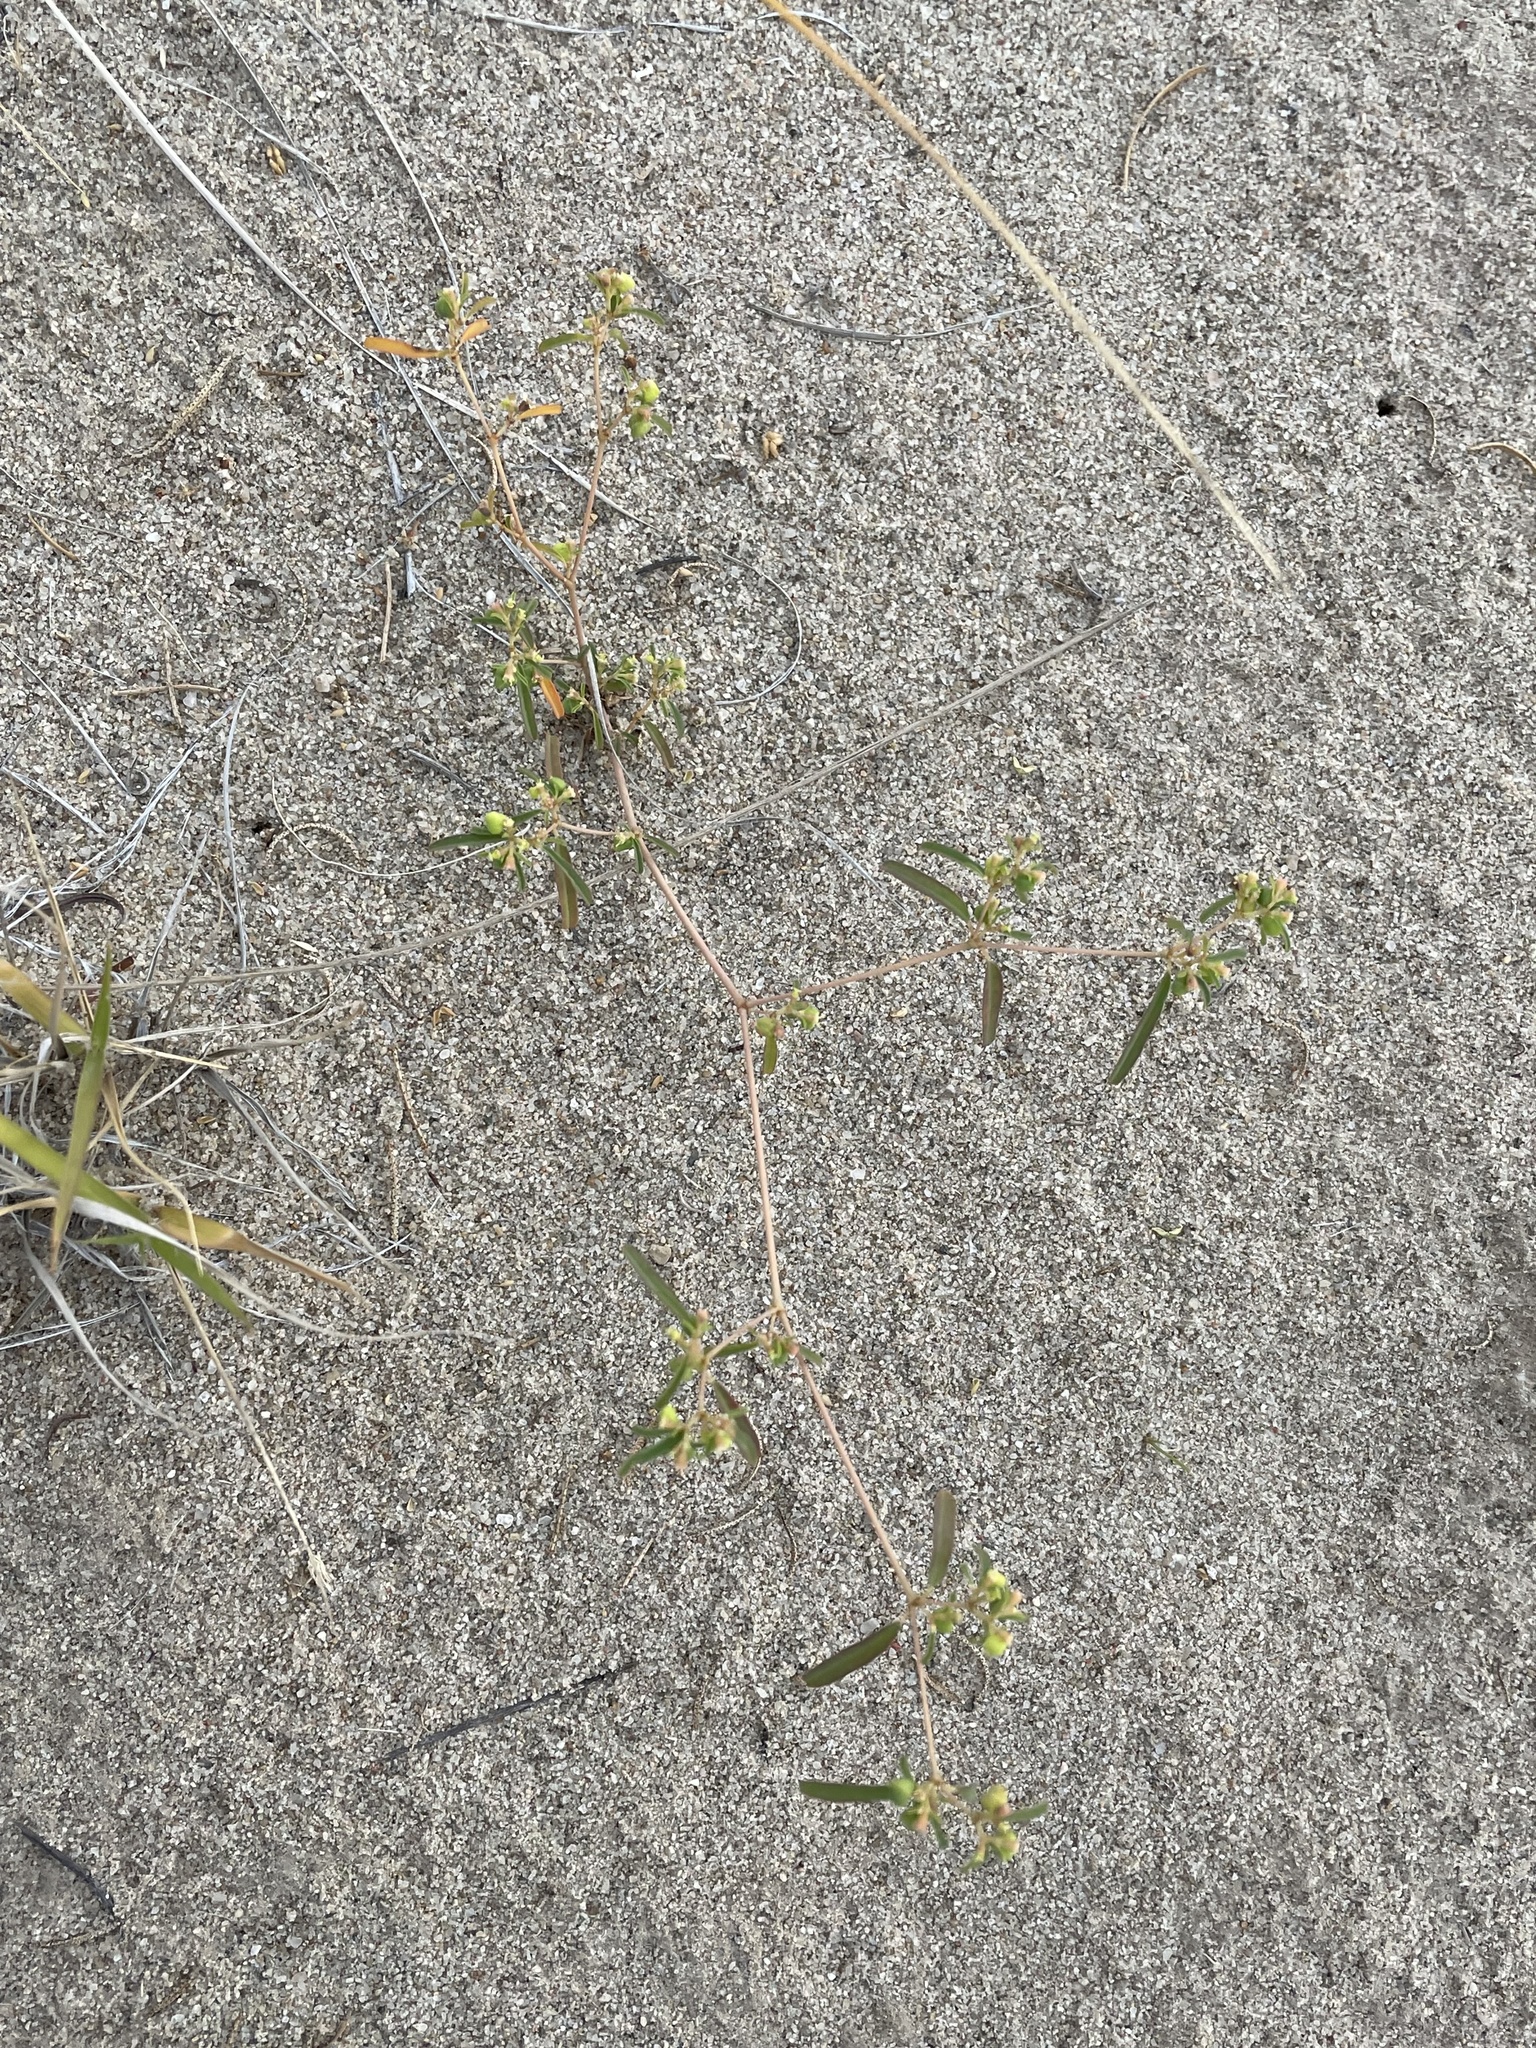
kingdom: Plantae
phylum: Tracheophyta
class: Magnoliopsida
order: Malpighiales
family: Euphorbiaceae
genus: Euphorbia
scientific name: Euphorbia parryi
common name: Dune spurge
